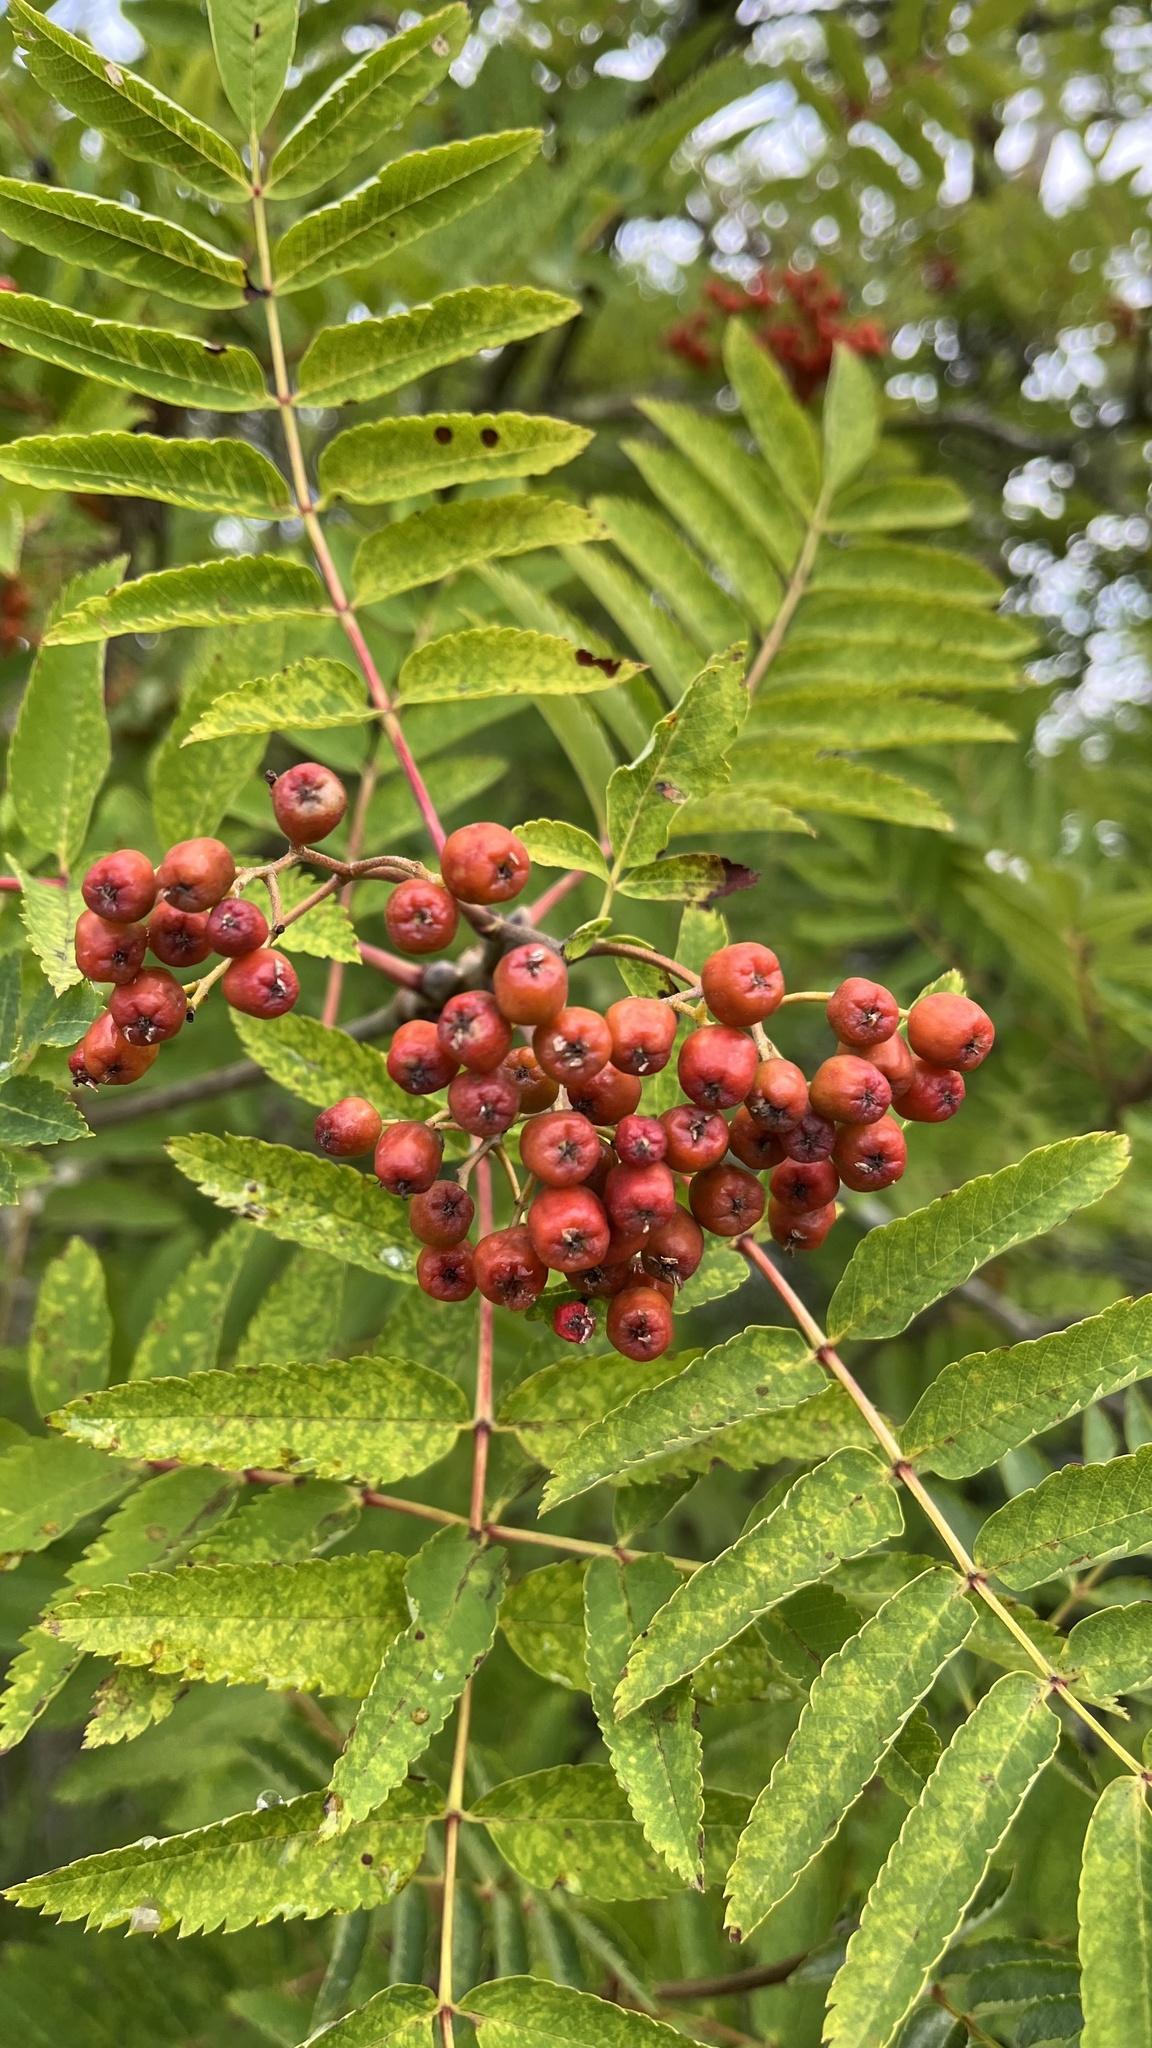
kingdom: Plantae
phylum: Tracheophyta
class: Magnoliopsida
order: Rosales
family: Rosaceae
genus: Sorbus
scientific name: Sorbus aucuparia
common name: Rowan
